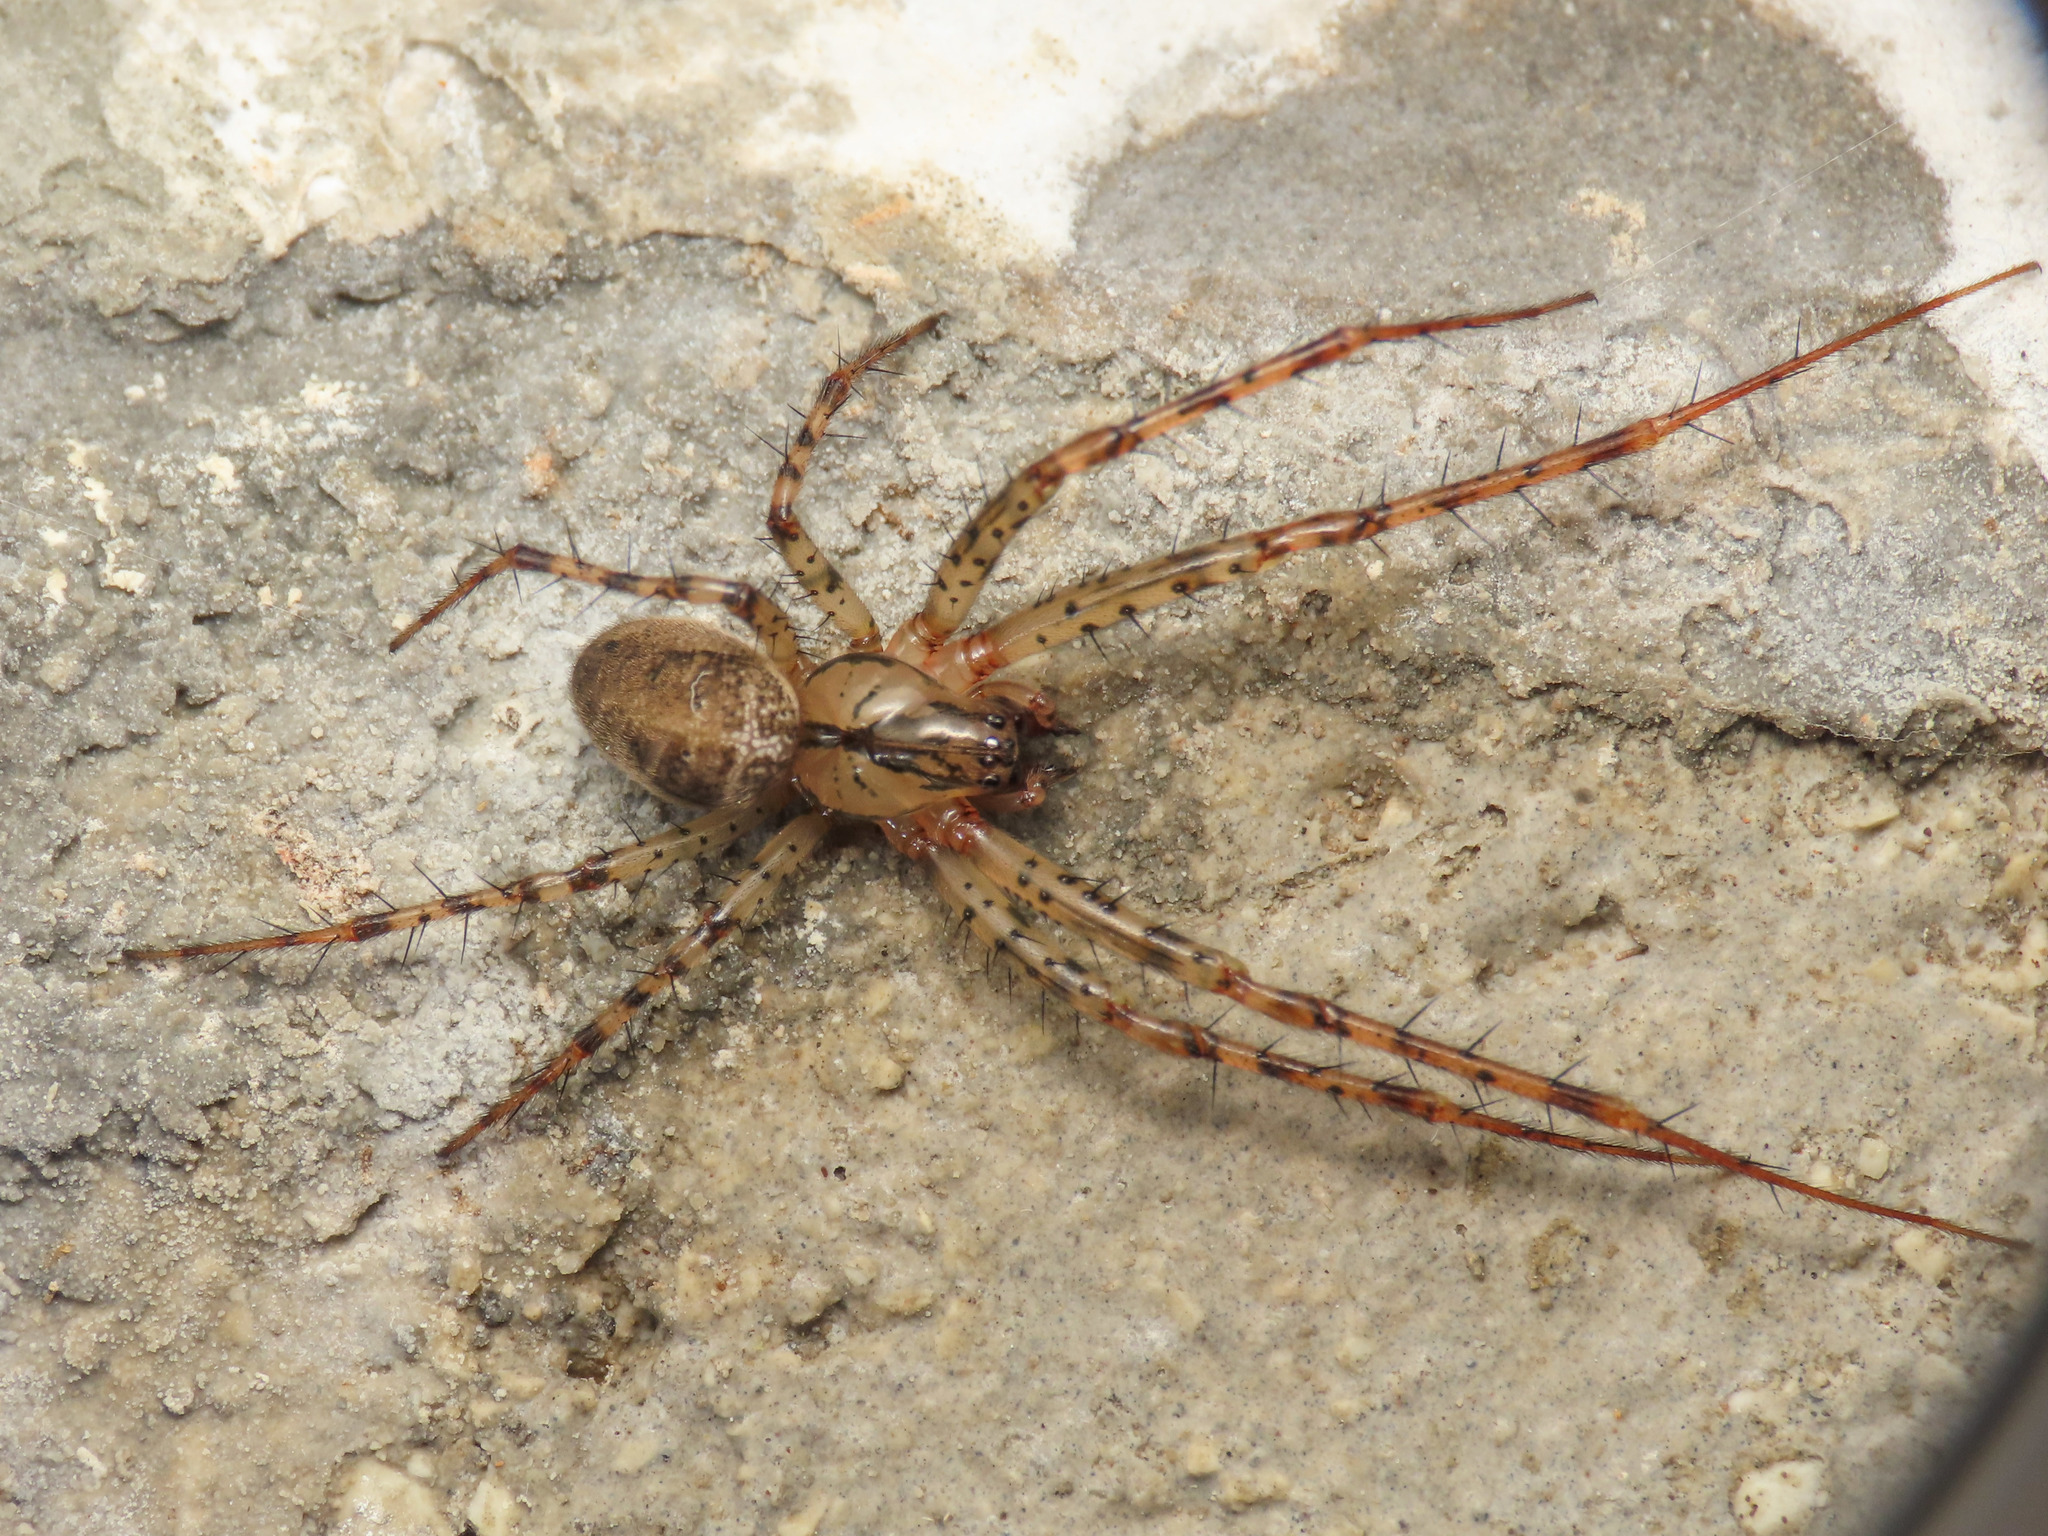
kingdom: Animalia
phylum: Arthropoda
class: Arachnida
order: Araneae
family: Tetragnathidae
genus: Metellina
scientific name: Metellina merianae
